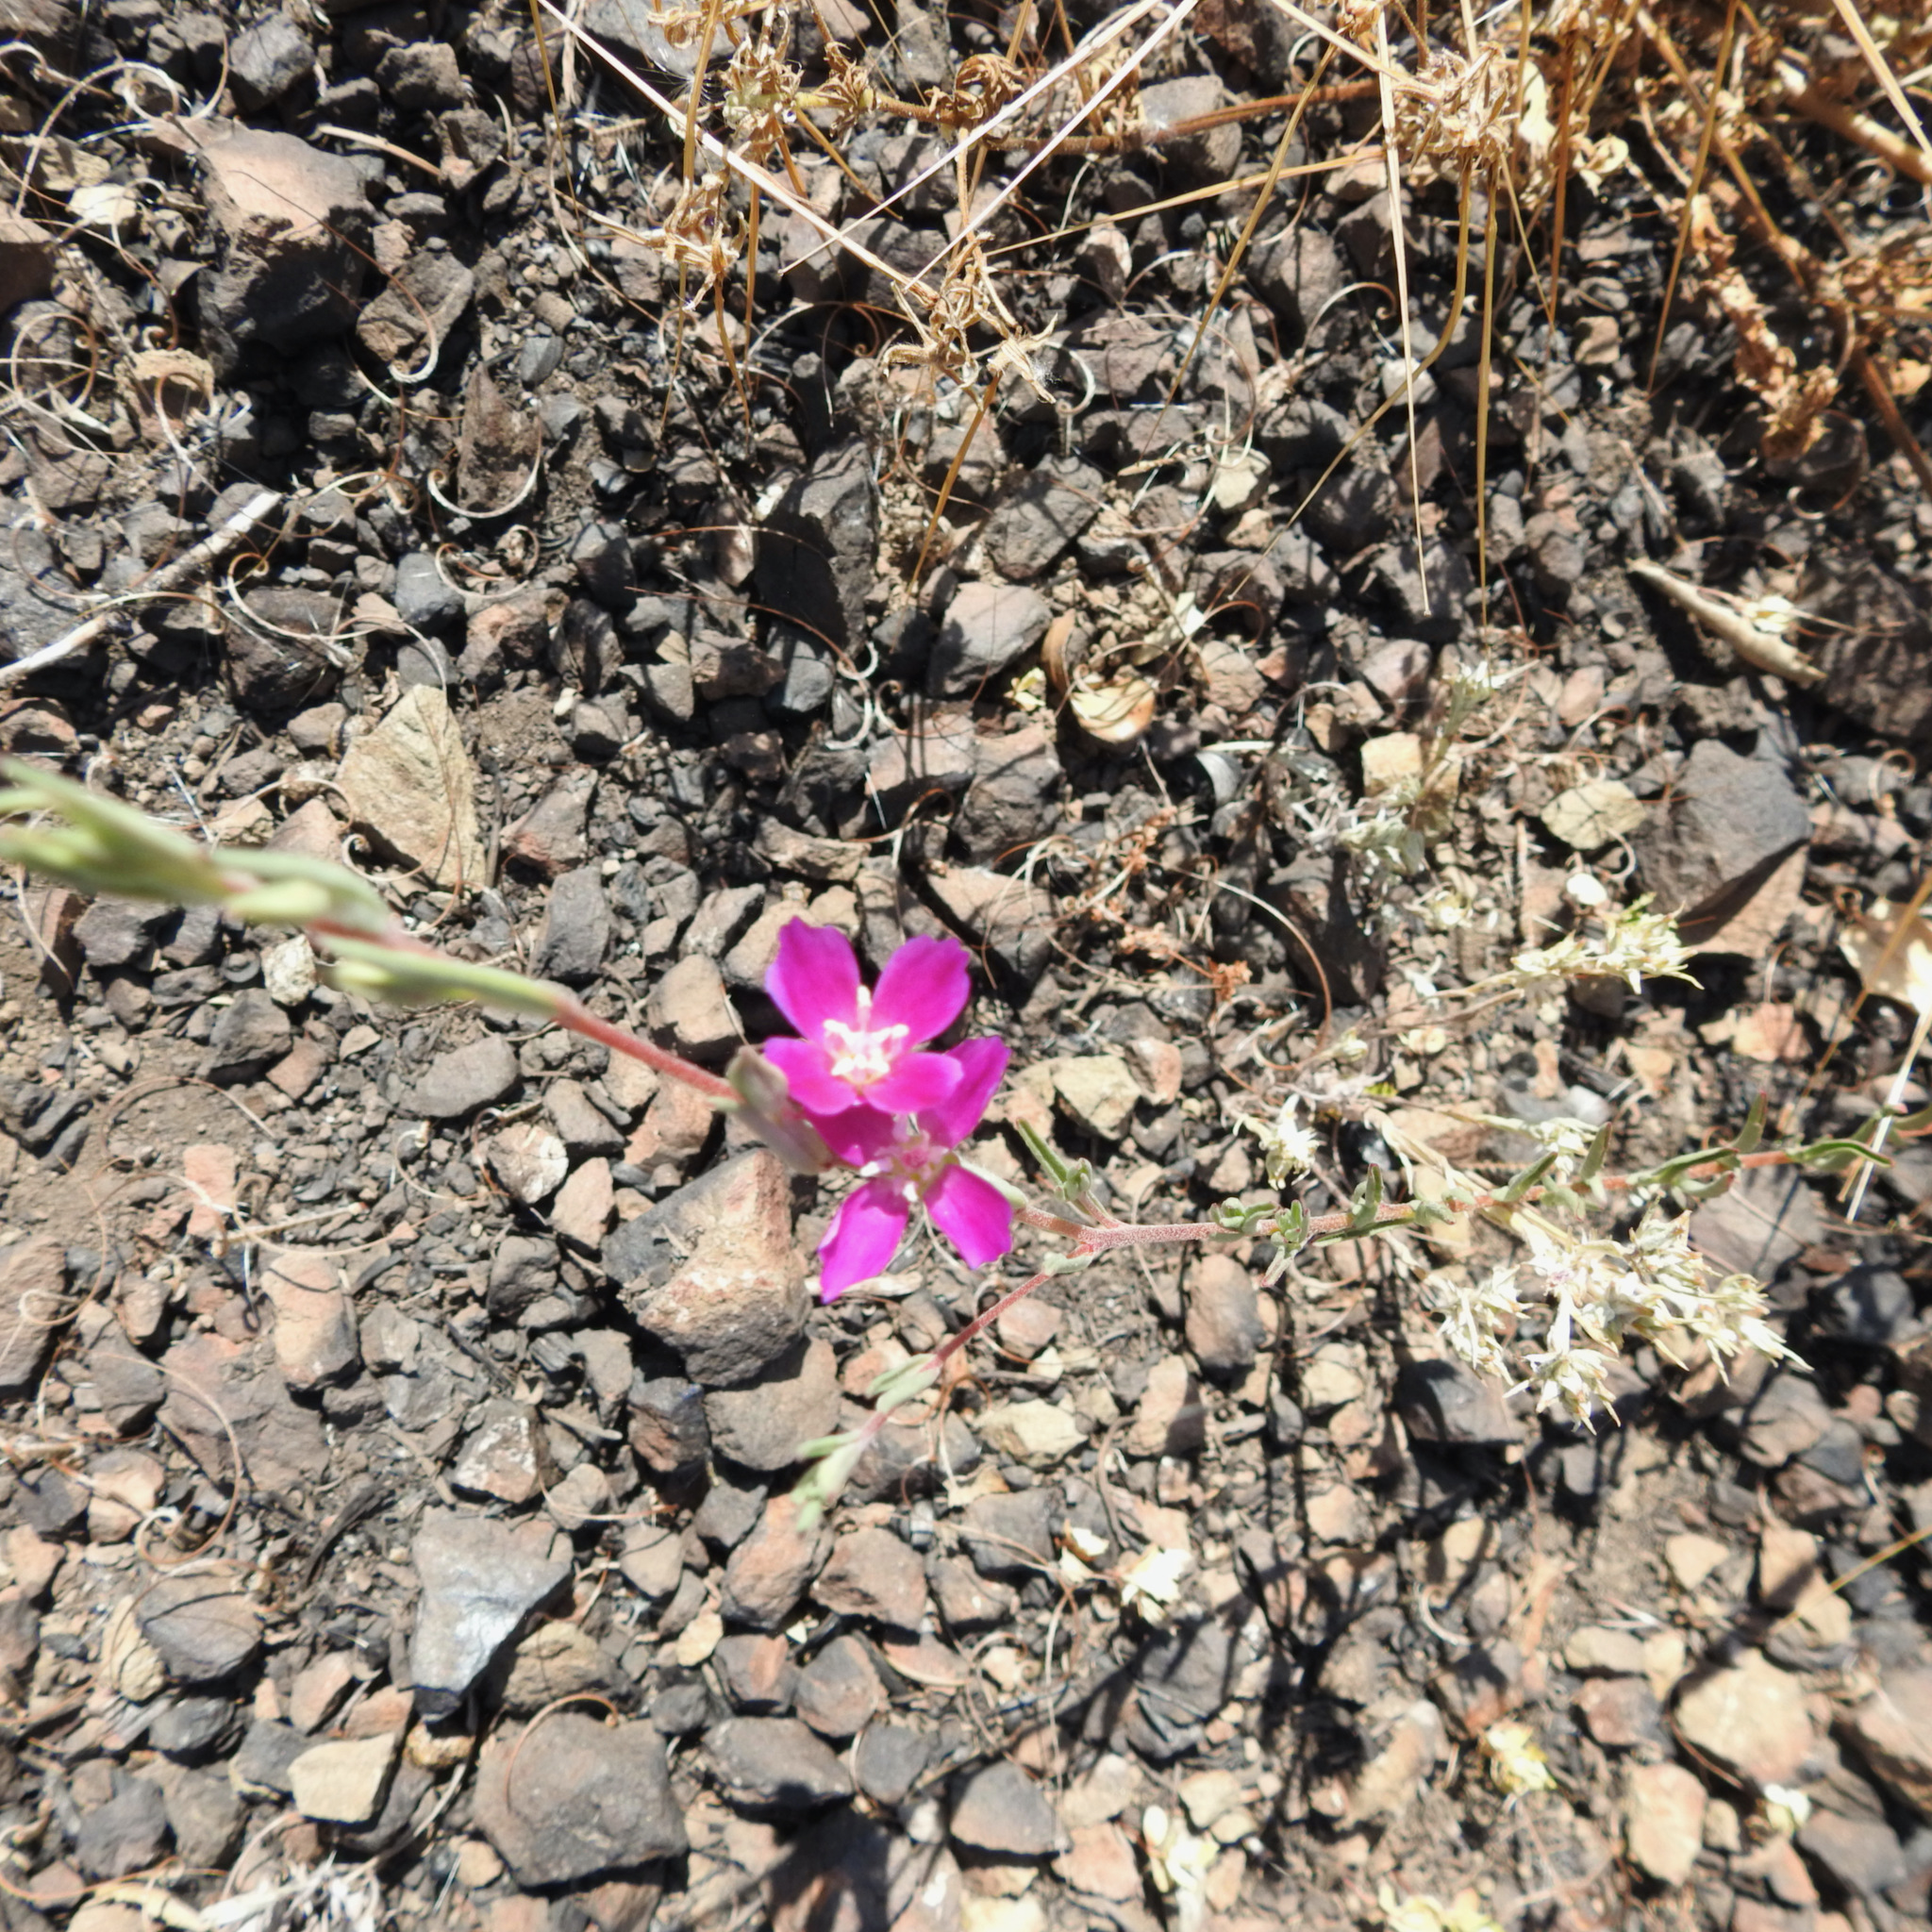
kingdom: Plantae
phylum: Tracheophyta
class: Magnoliopsida
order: Myrtales
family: Onagraceae
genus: Clarkia
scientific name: Clarkia purpurea
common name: Purple clarkia
